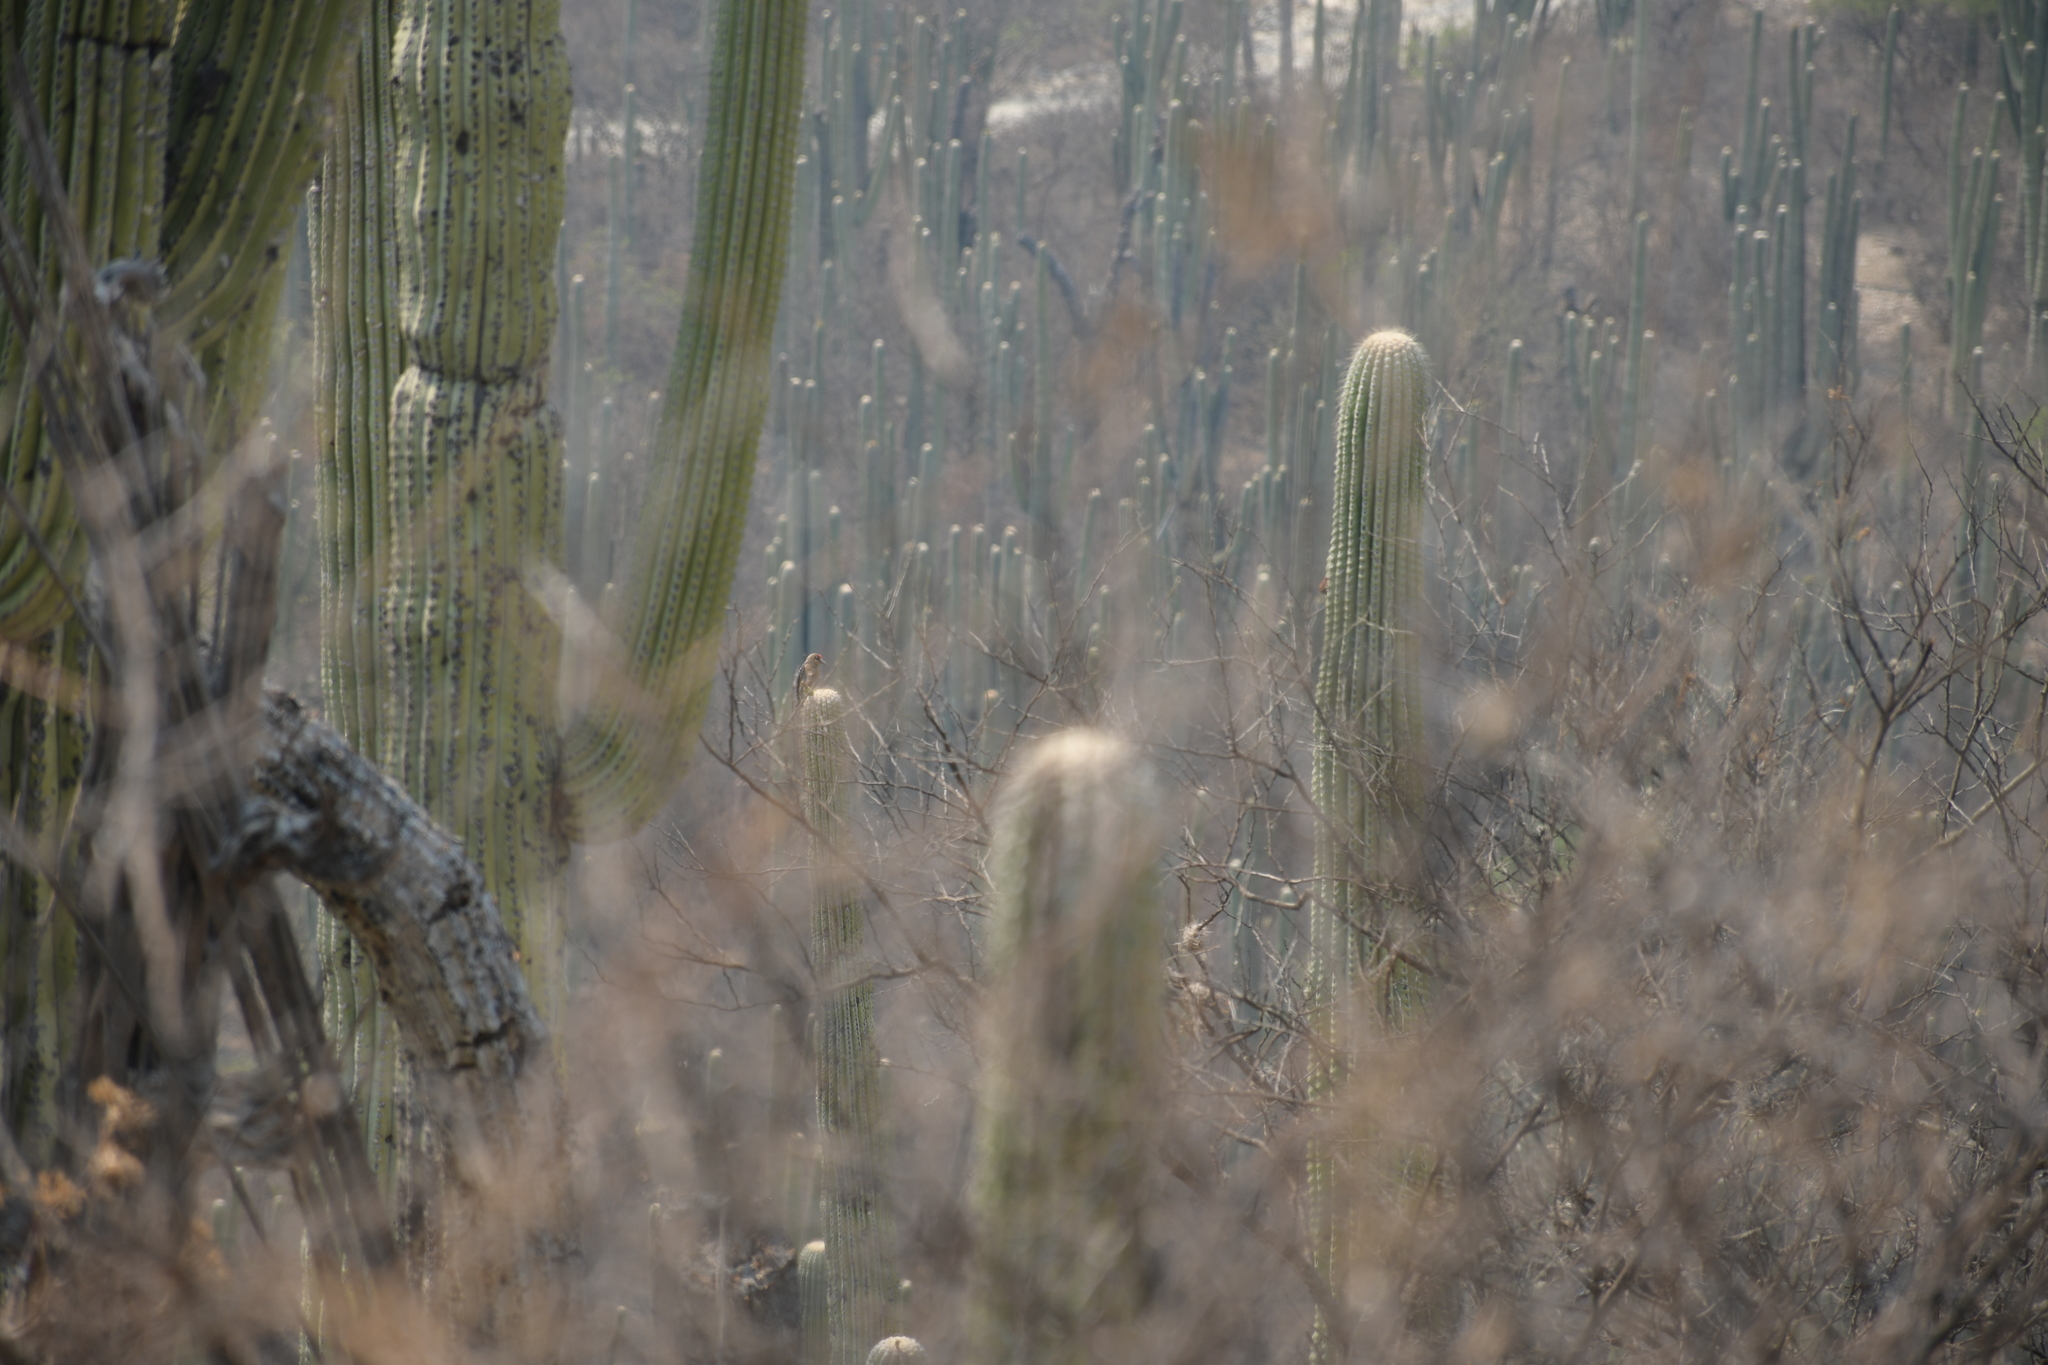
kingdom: Animalia
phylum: Chordata
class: Aves
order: Piciformes
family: Picidae
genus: Melanerpes
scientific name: Melanerpes hypopolius
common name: Grey-breasted woodpecker
